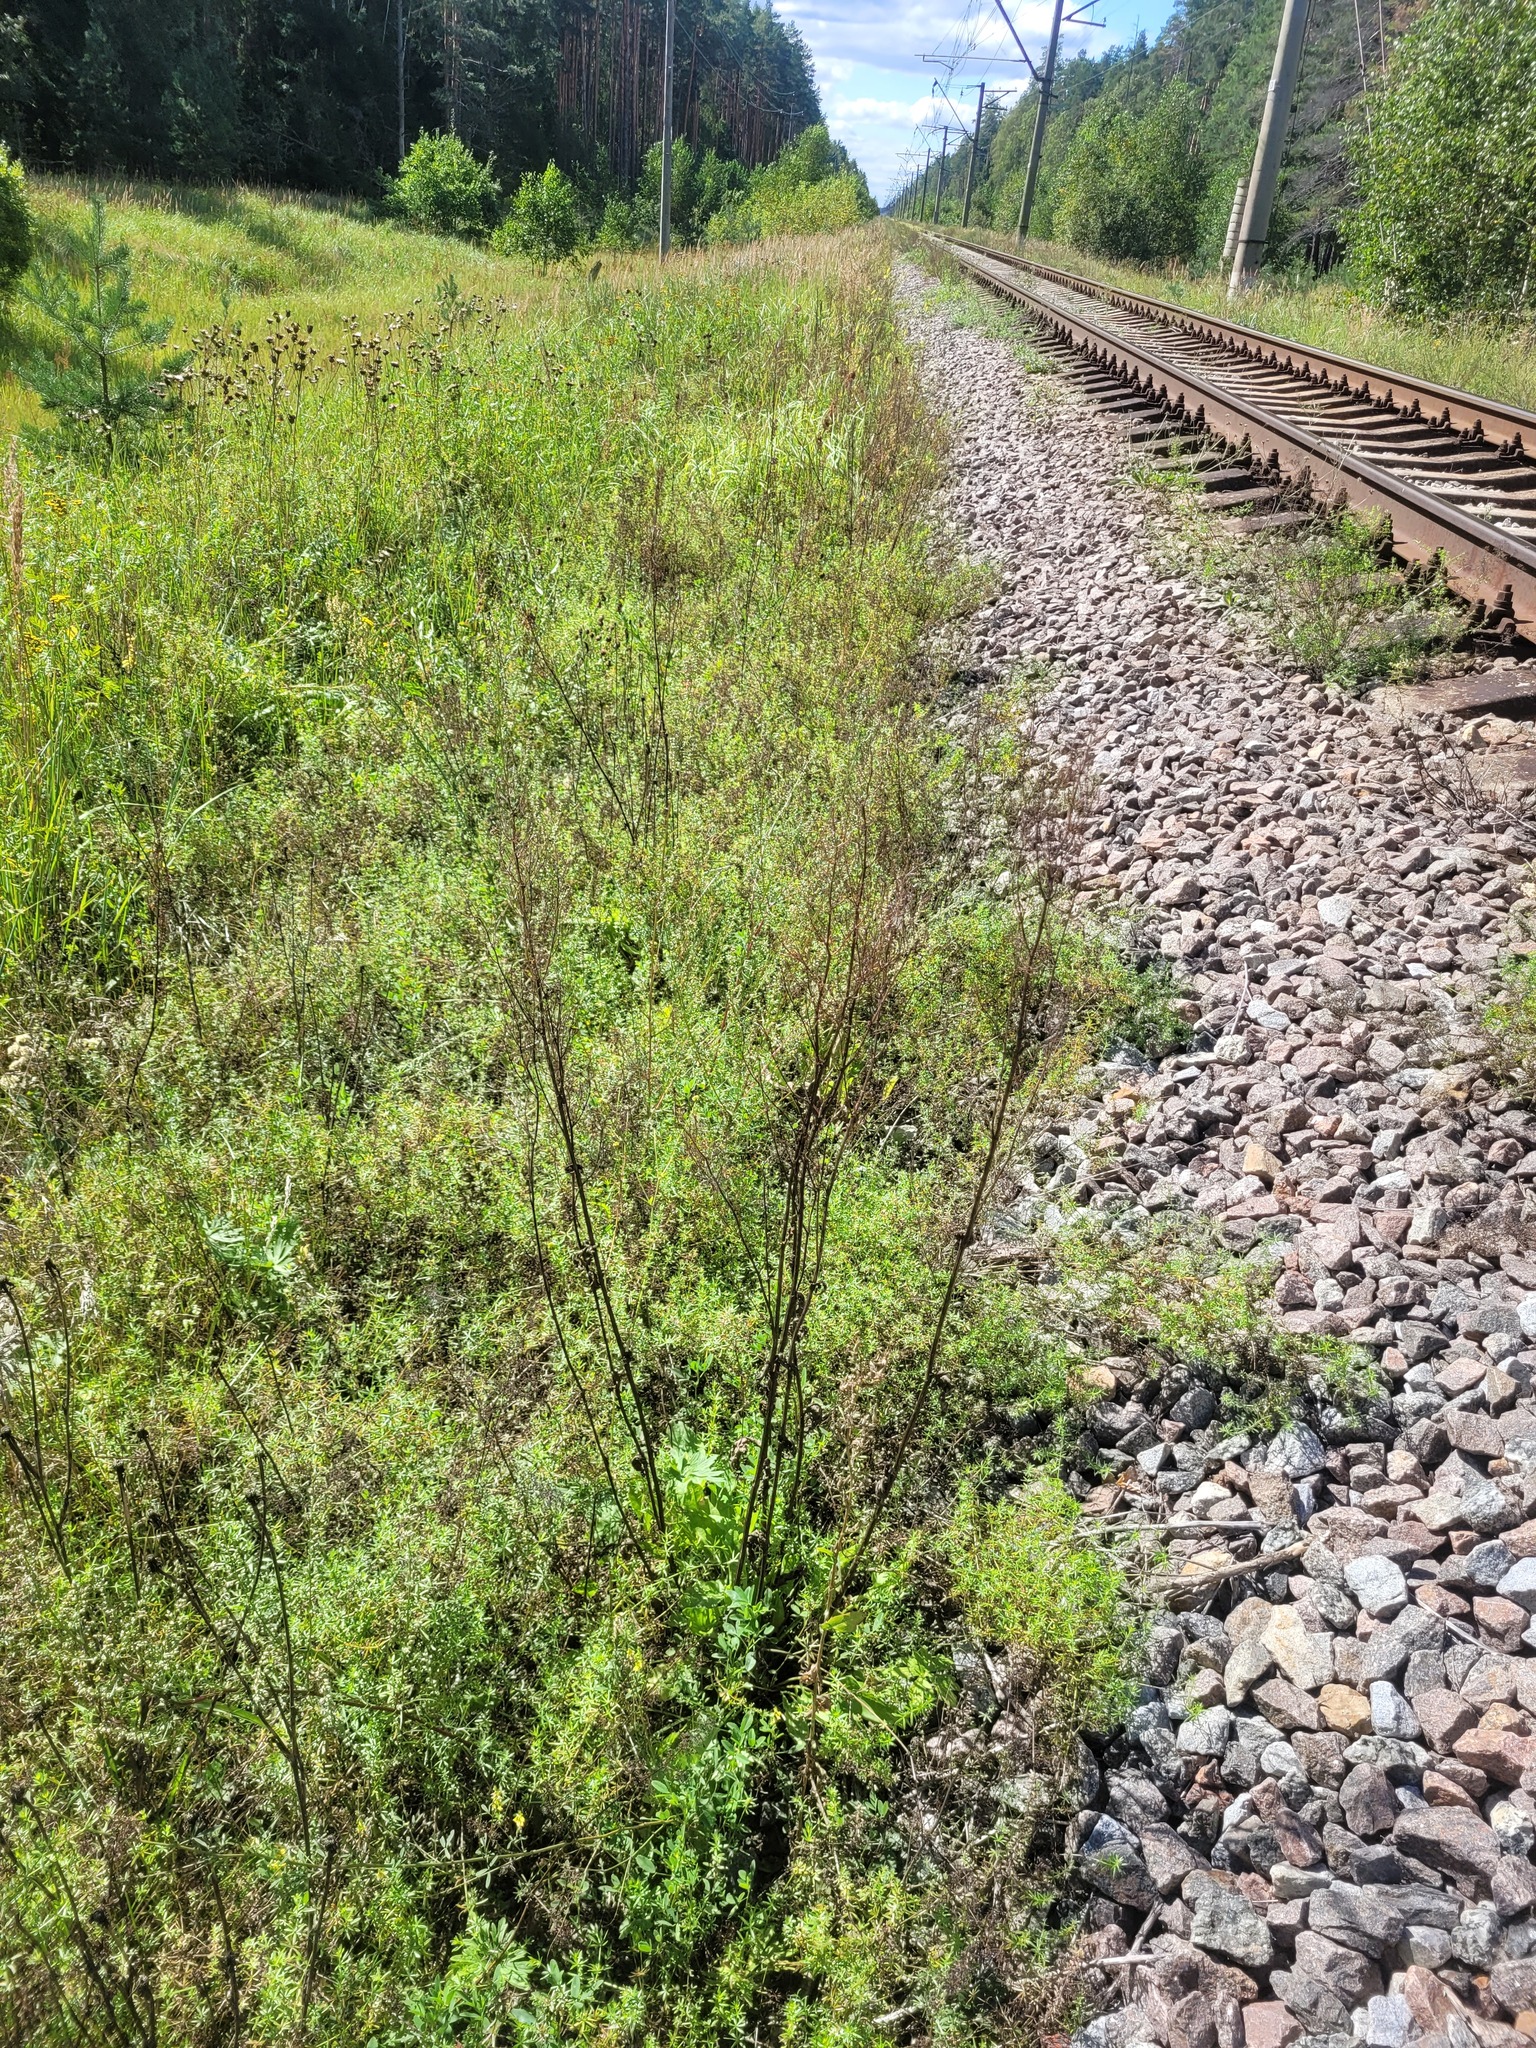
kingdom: Plantae
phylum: Tracheophyta
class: Magnoliopsida
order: Caryophyllales
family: Polygonaceae
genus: Rumex
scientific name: Rumex thyrsiflorus
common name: Garden sorrel
